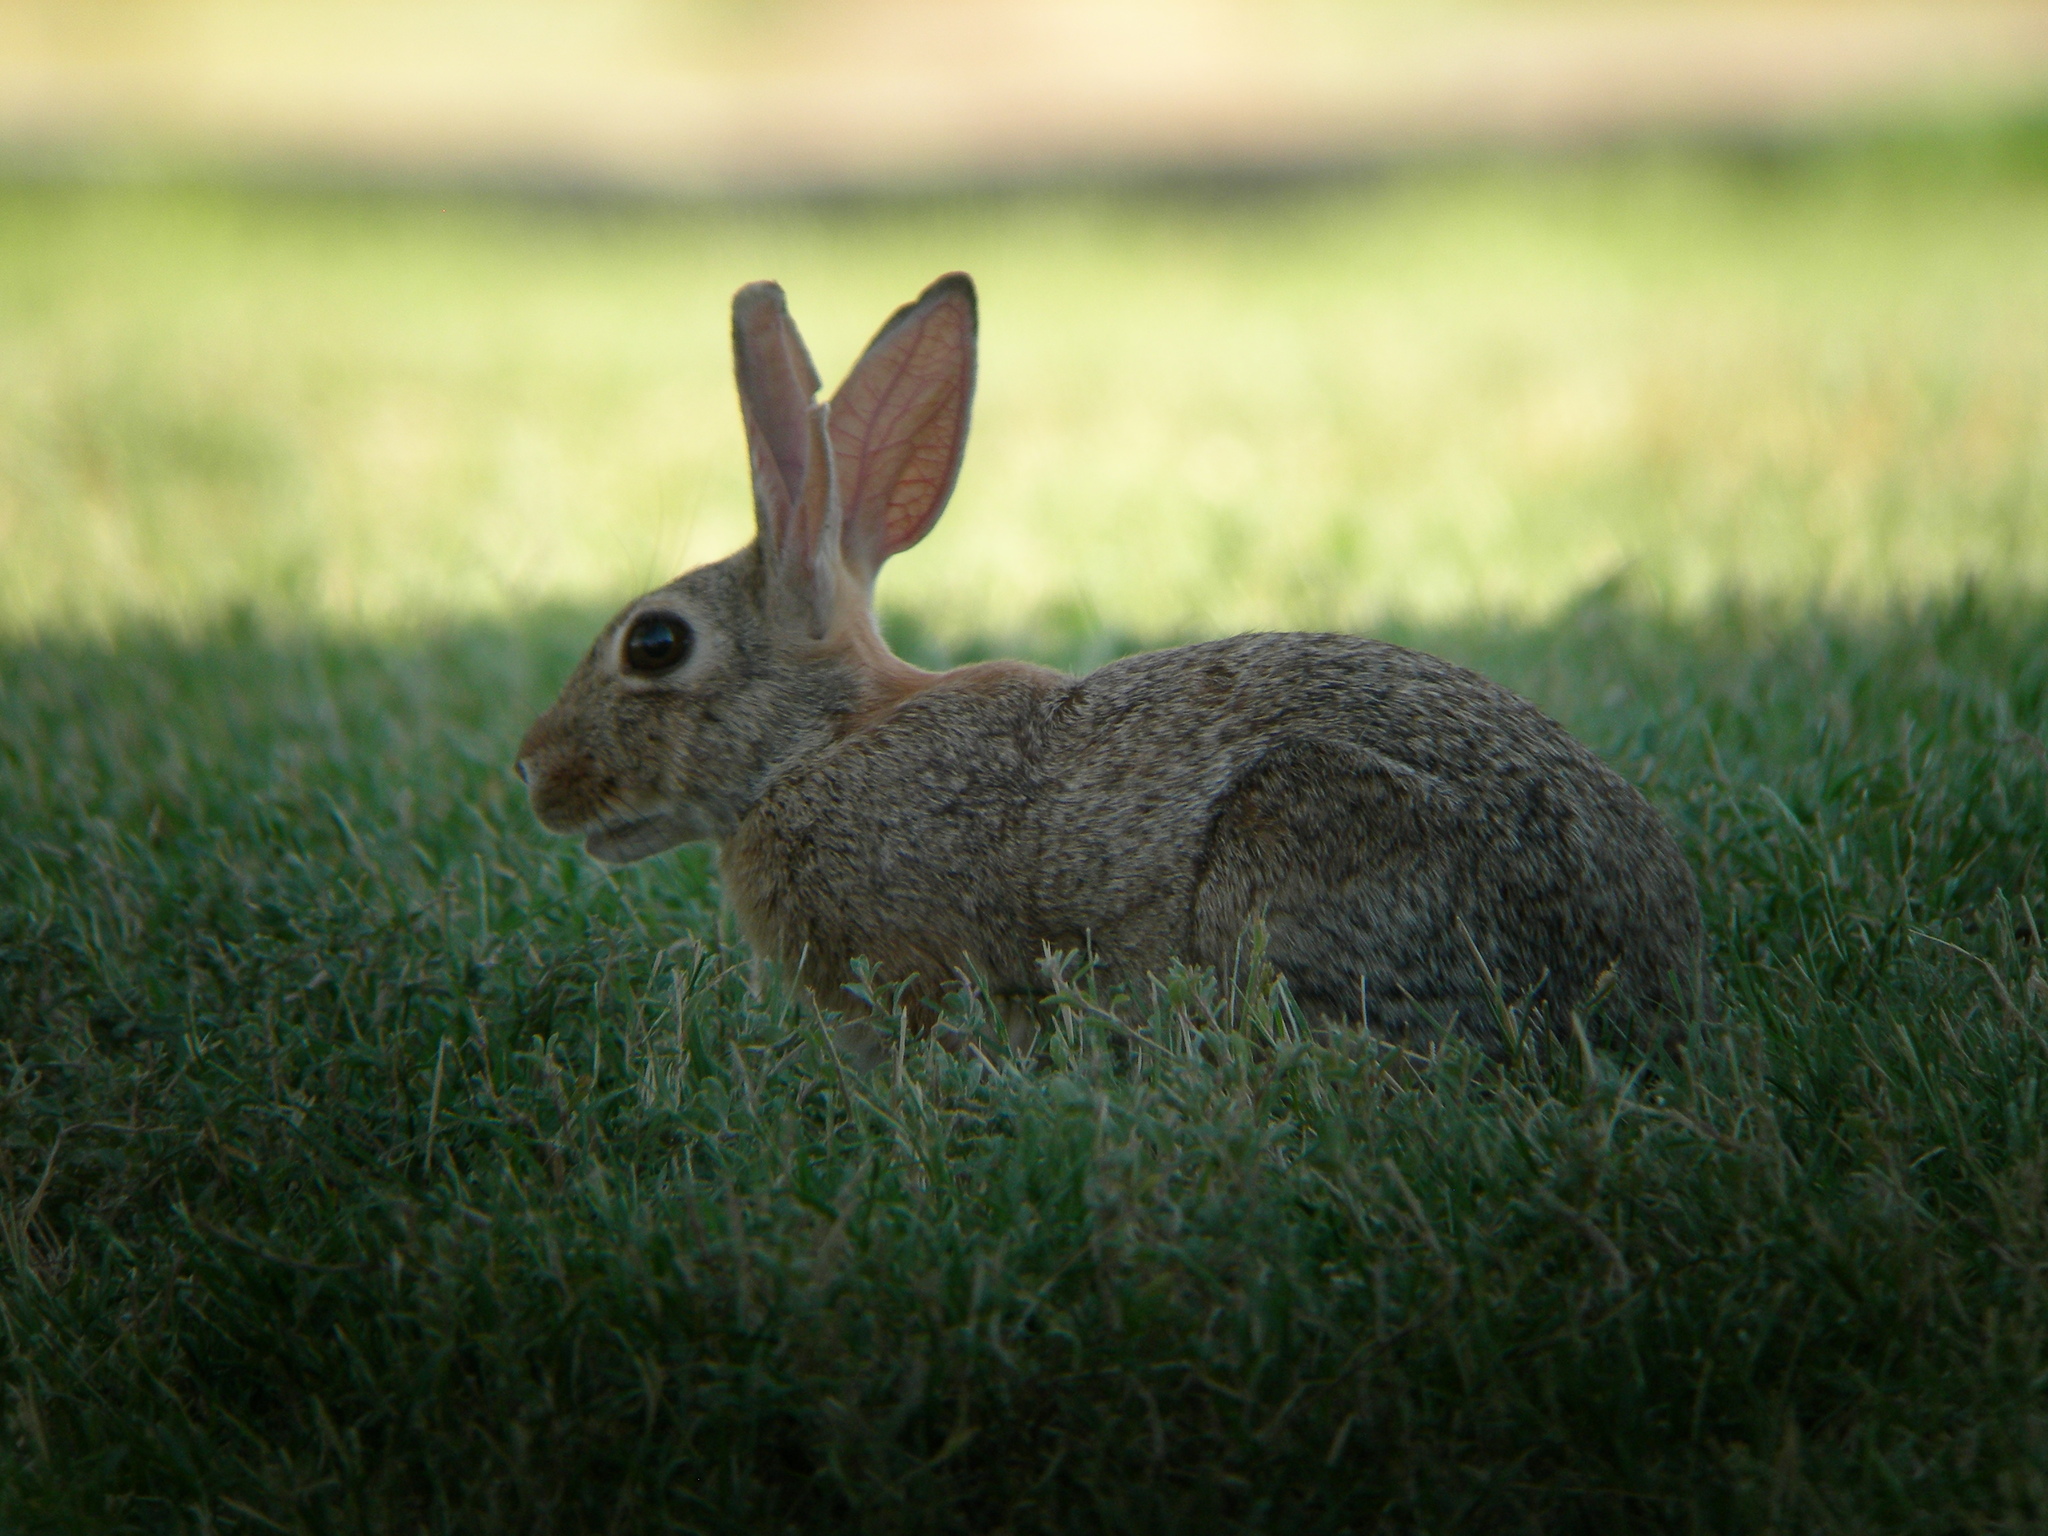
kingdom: Animalia
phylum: Chordata
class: Mammalia
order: Lagomorpha
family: Leporidae
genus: Sylvilagus
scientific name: Sylvilagus audubonii
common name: Desert cottontail
